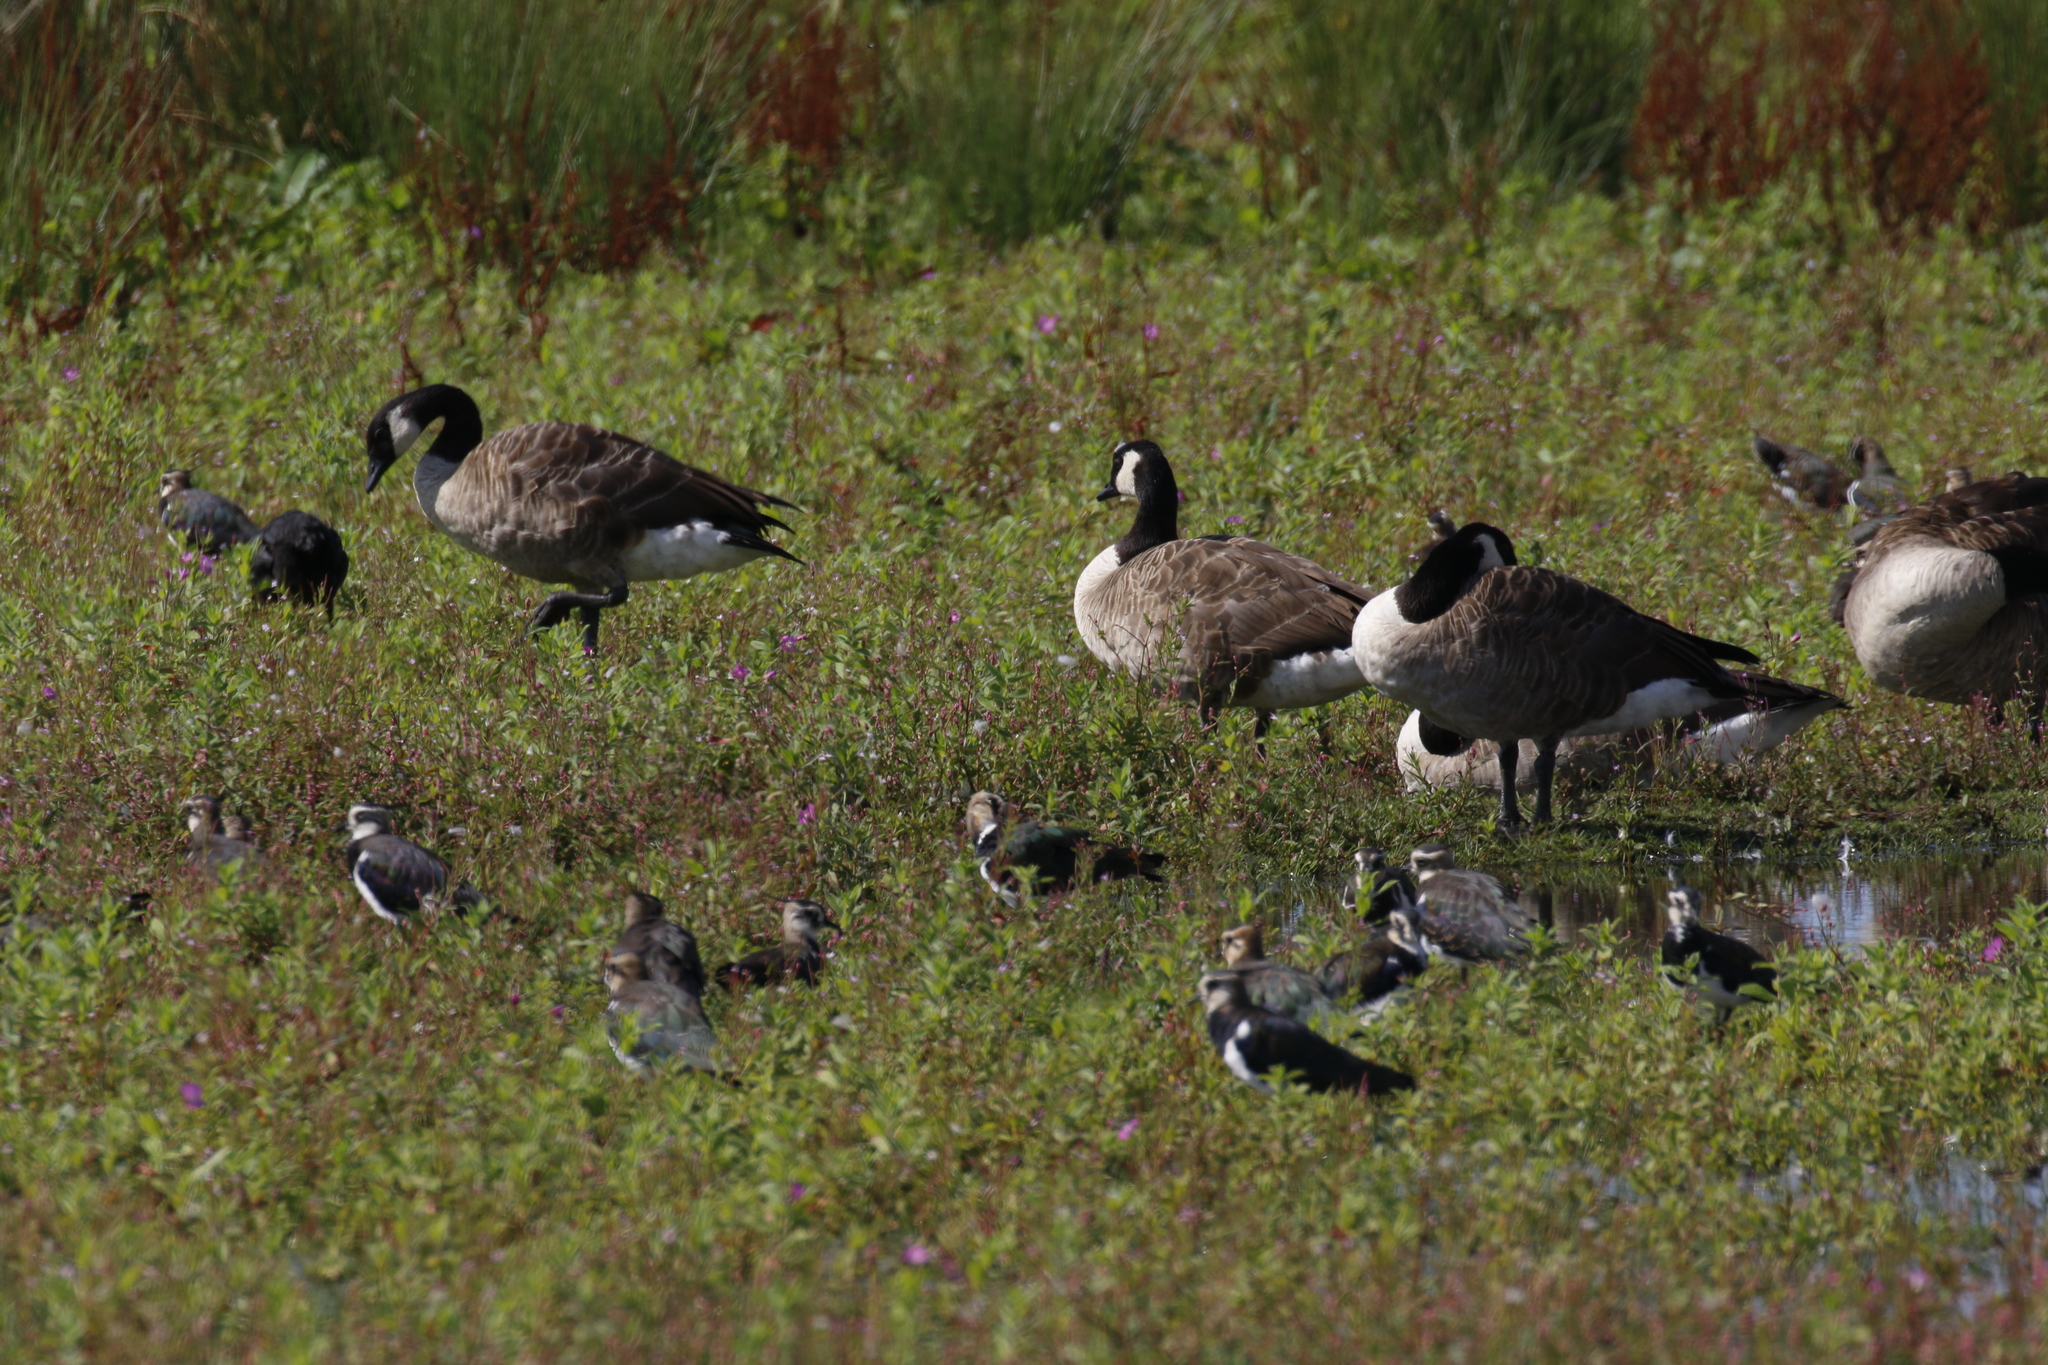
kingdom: Animalia
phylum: Chordata
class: Aves
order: Anseriformes
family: Anatidae
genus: Branta
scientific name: Branta canadensis
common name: Canada goose
